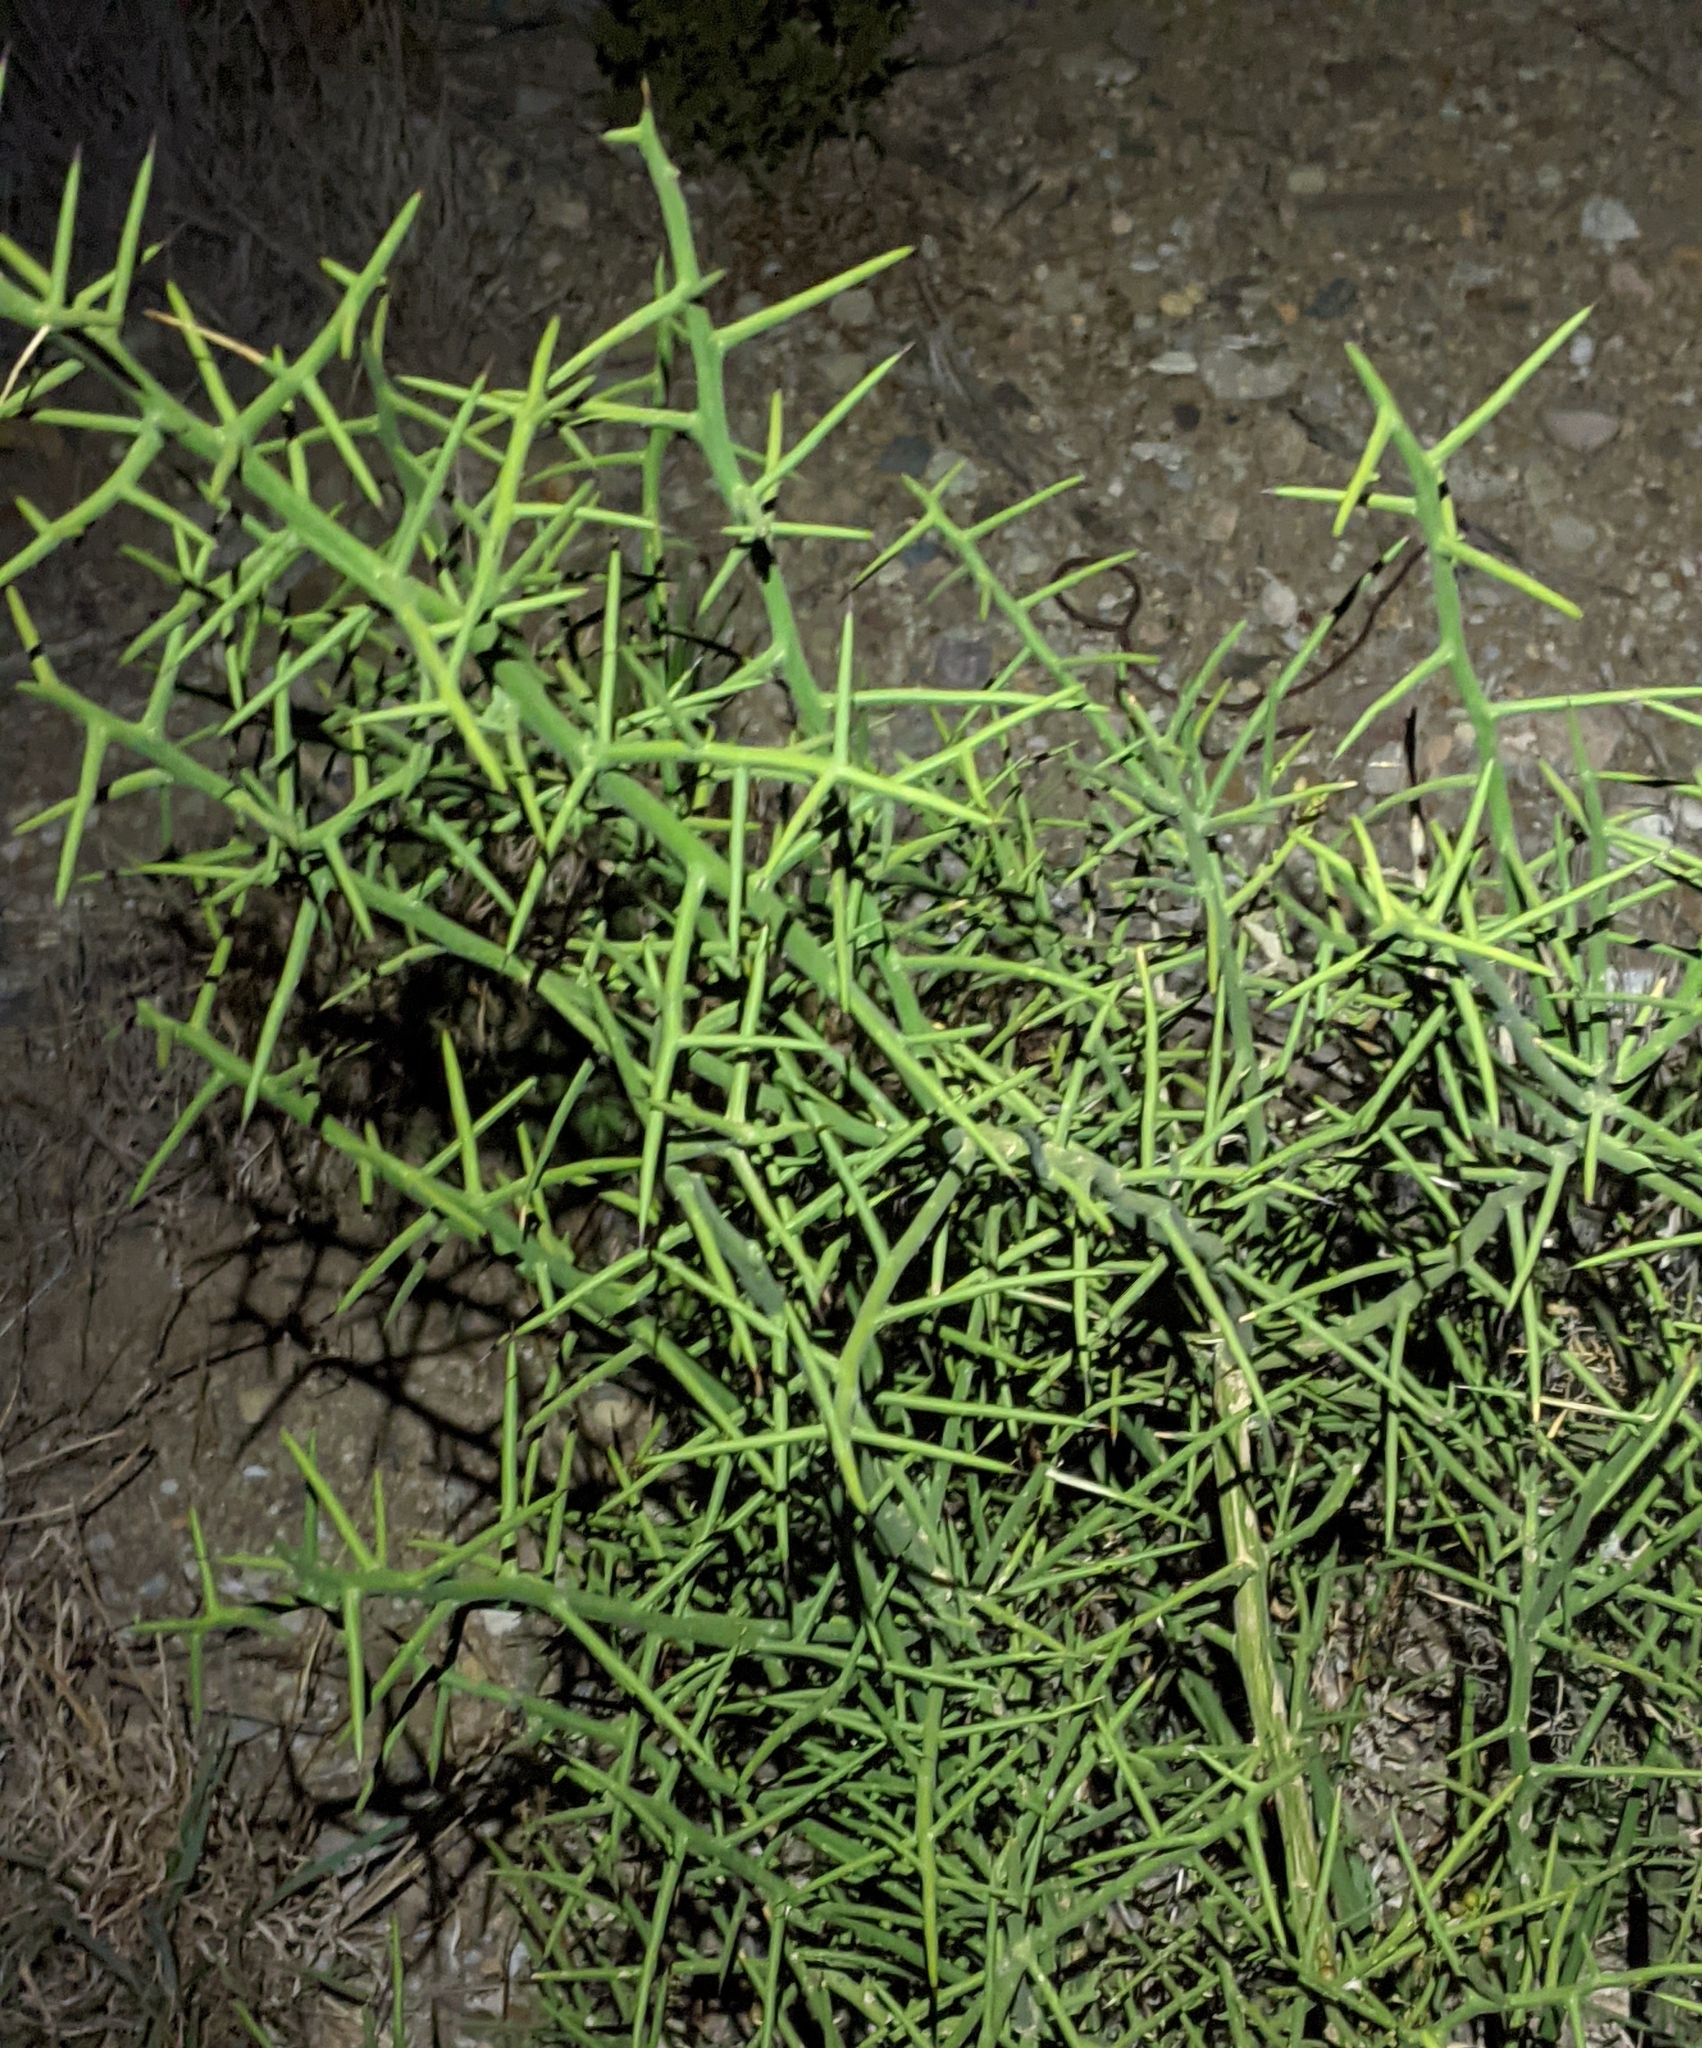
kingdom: Plantae
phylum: Tracheophyta
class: Magnoliopsida
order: Brassicales
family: Koeberliniaceae
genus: Koeberlinia
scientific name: Koeberlinia spinosa
